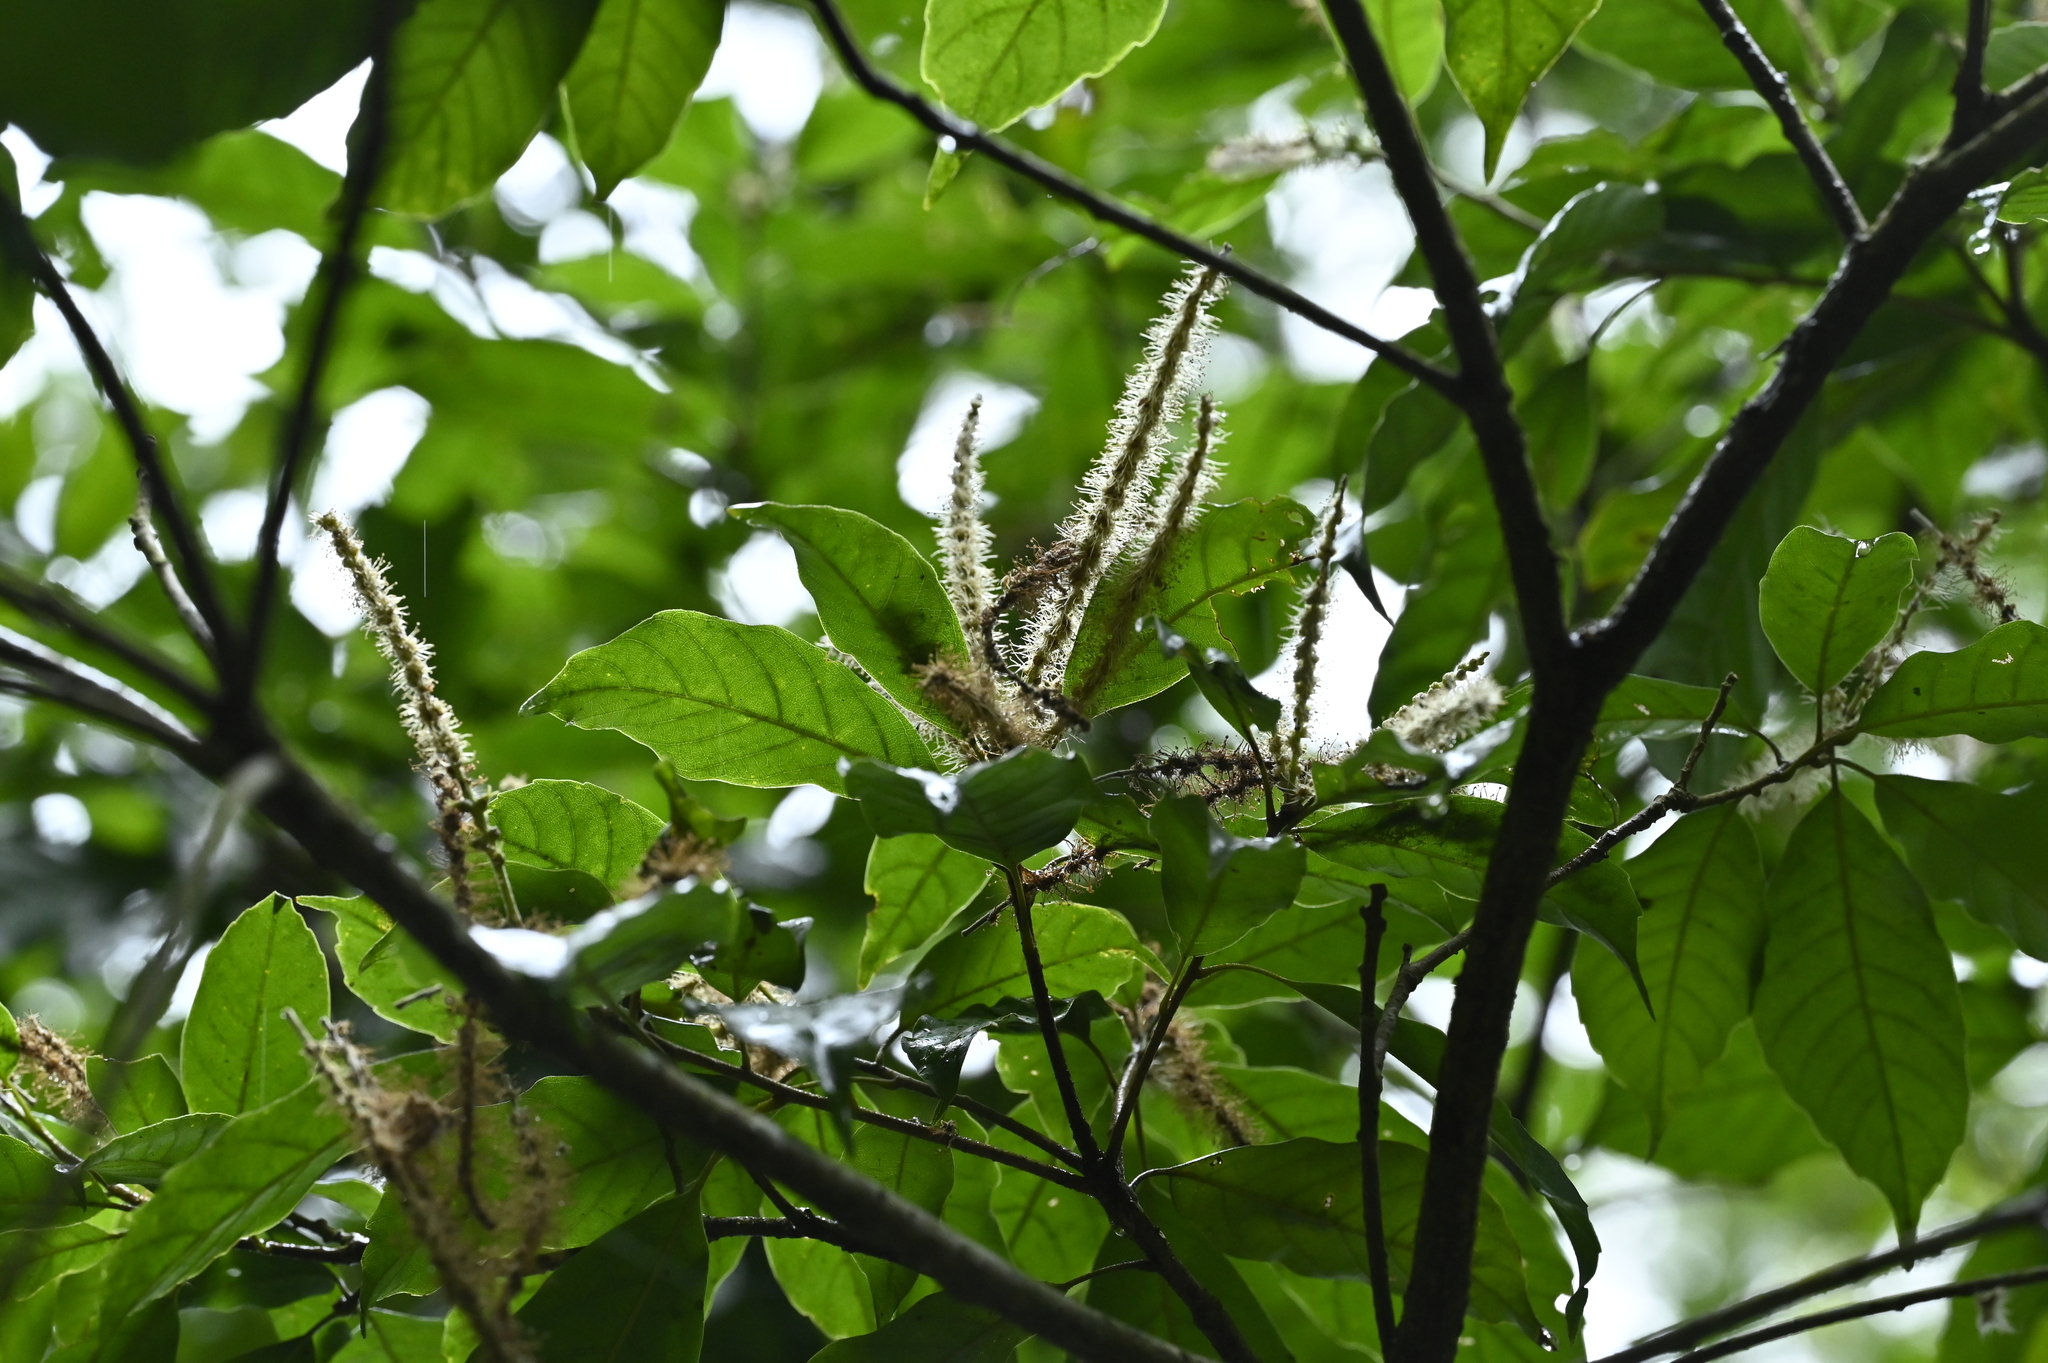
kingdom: Plantae
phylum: Tracheophyta
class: Magnoliopsida
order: Fagales
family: Fagaceae
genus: Lithocarpus
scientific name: Lithocarpus corneus
